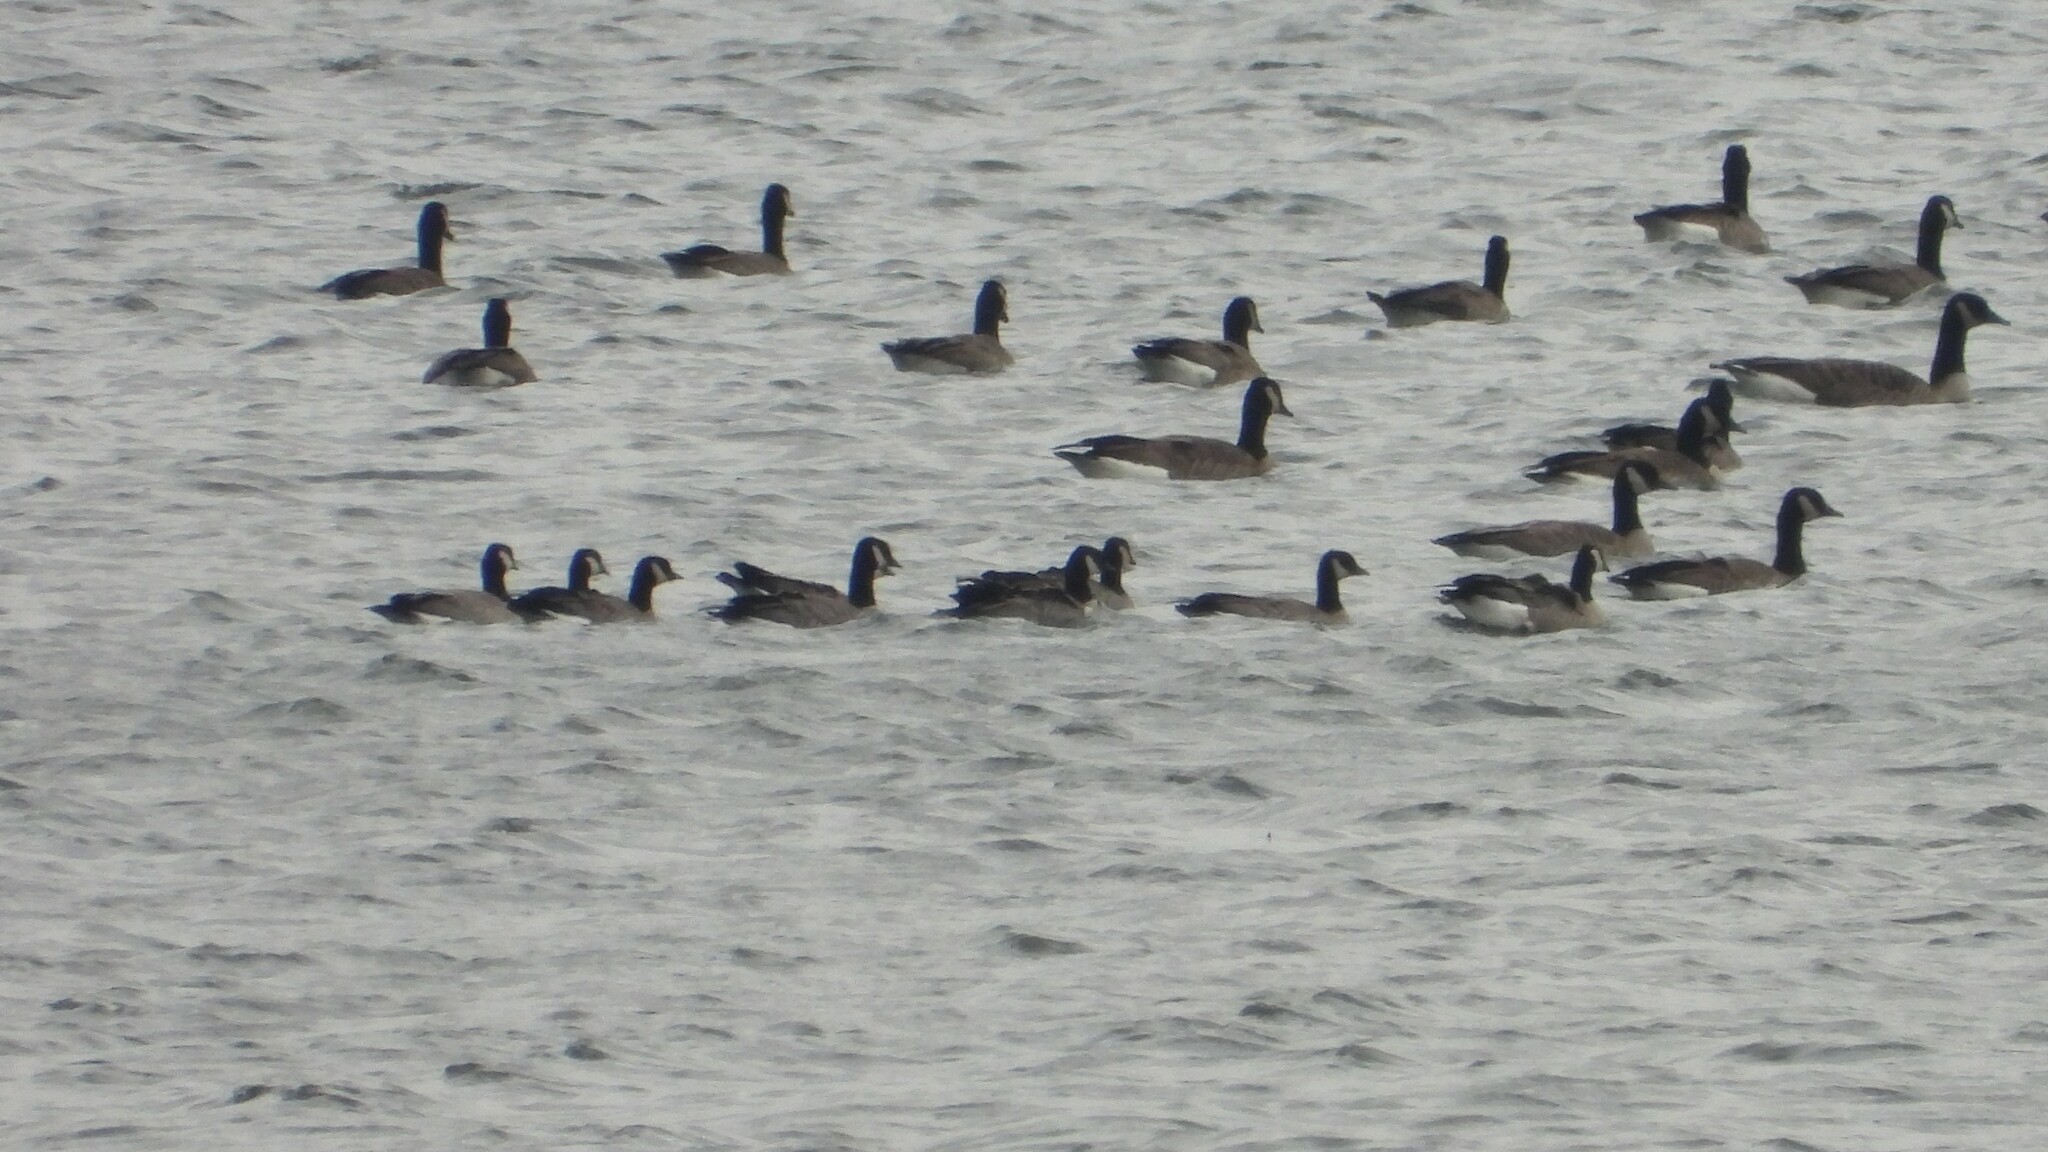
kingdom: Animalia
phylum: Chordata
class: Aves
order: Anseriformes
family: Anatidae
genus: Branta
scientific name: Branta hutchinsii
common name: Cackling goose
